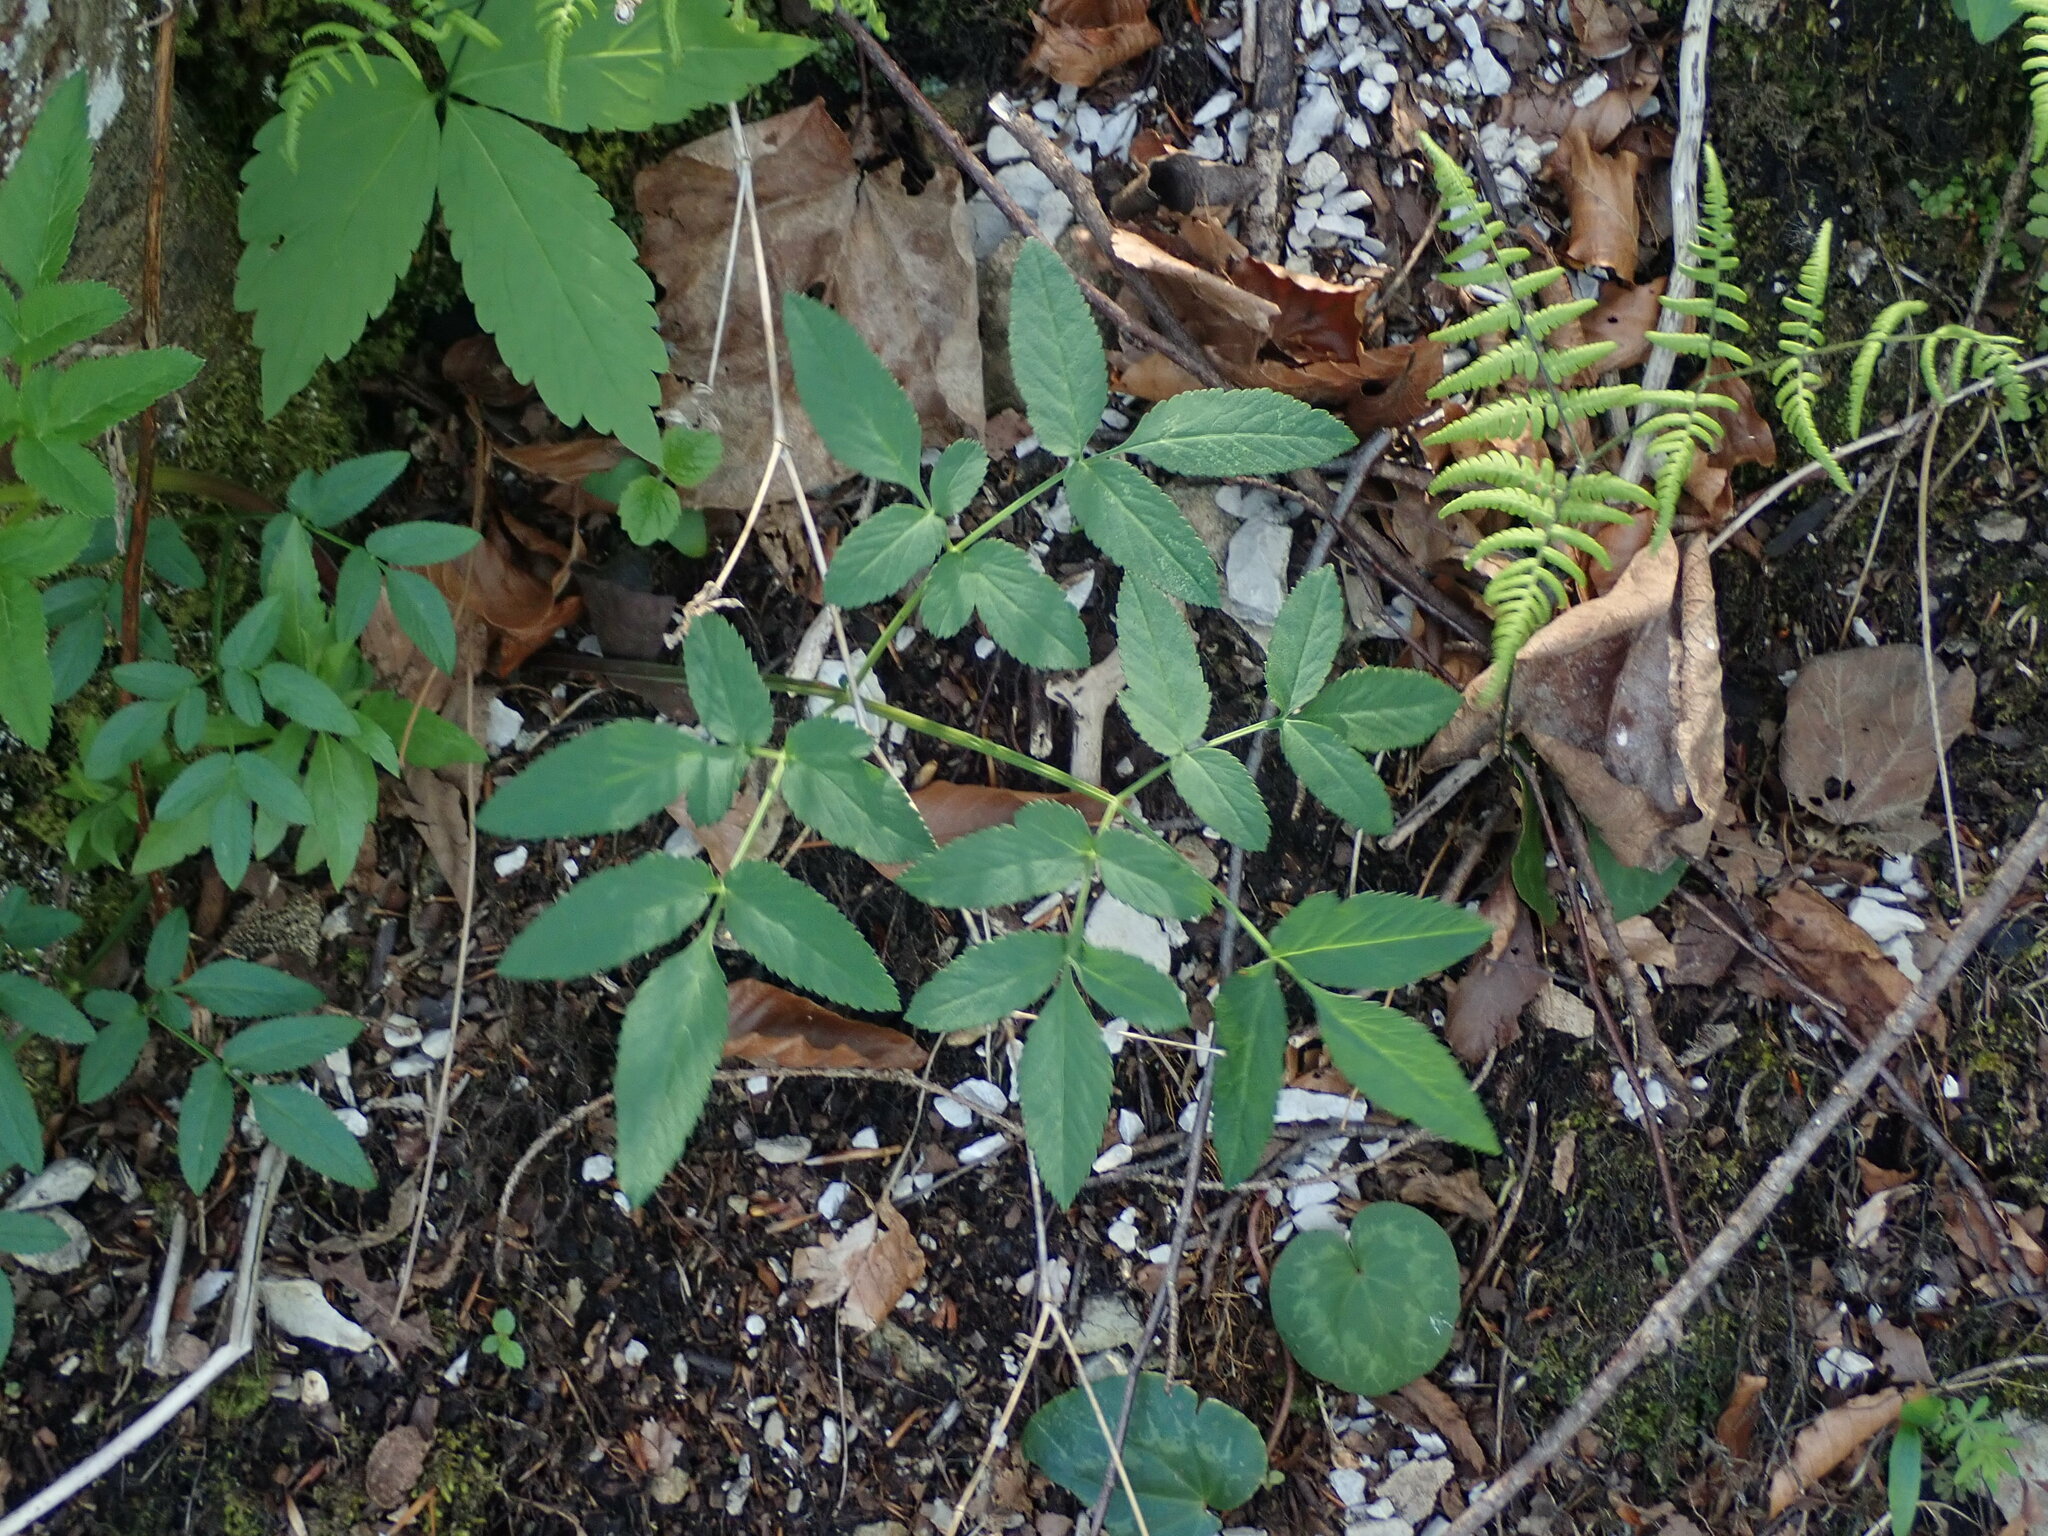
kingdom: Plantae
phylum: Tracheophyta
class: Magnoliopsida
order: Apiales
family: Apiaceae
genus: Angelica
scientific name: Angelica sylvestris
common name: Wild angelica
